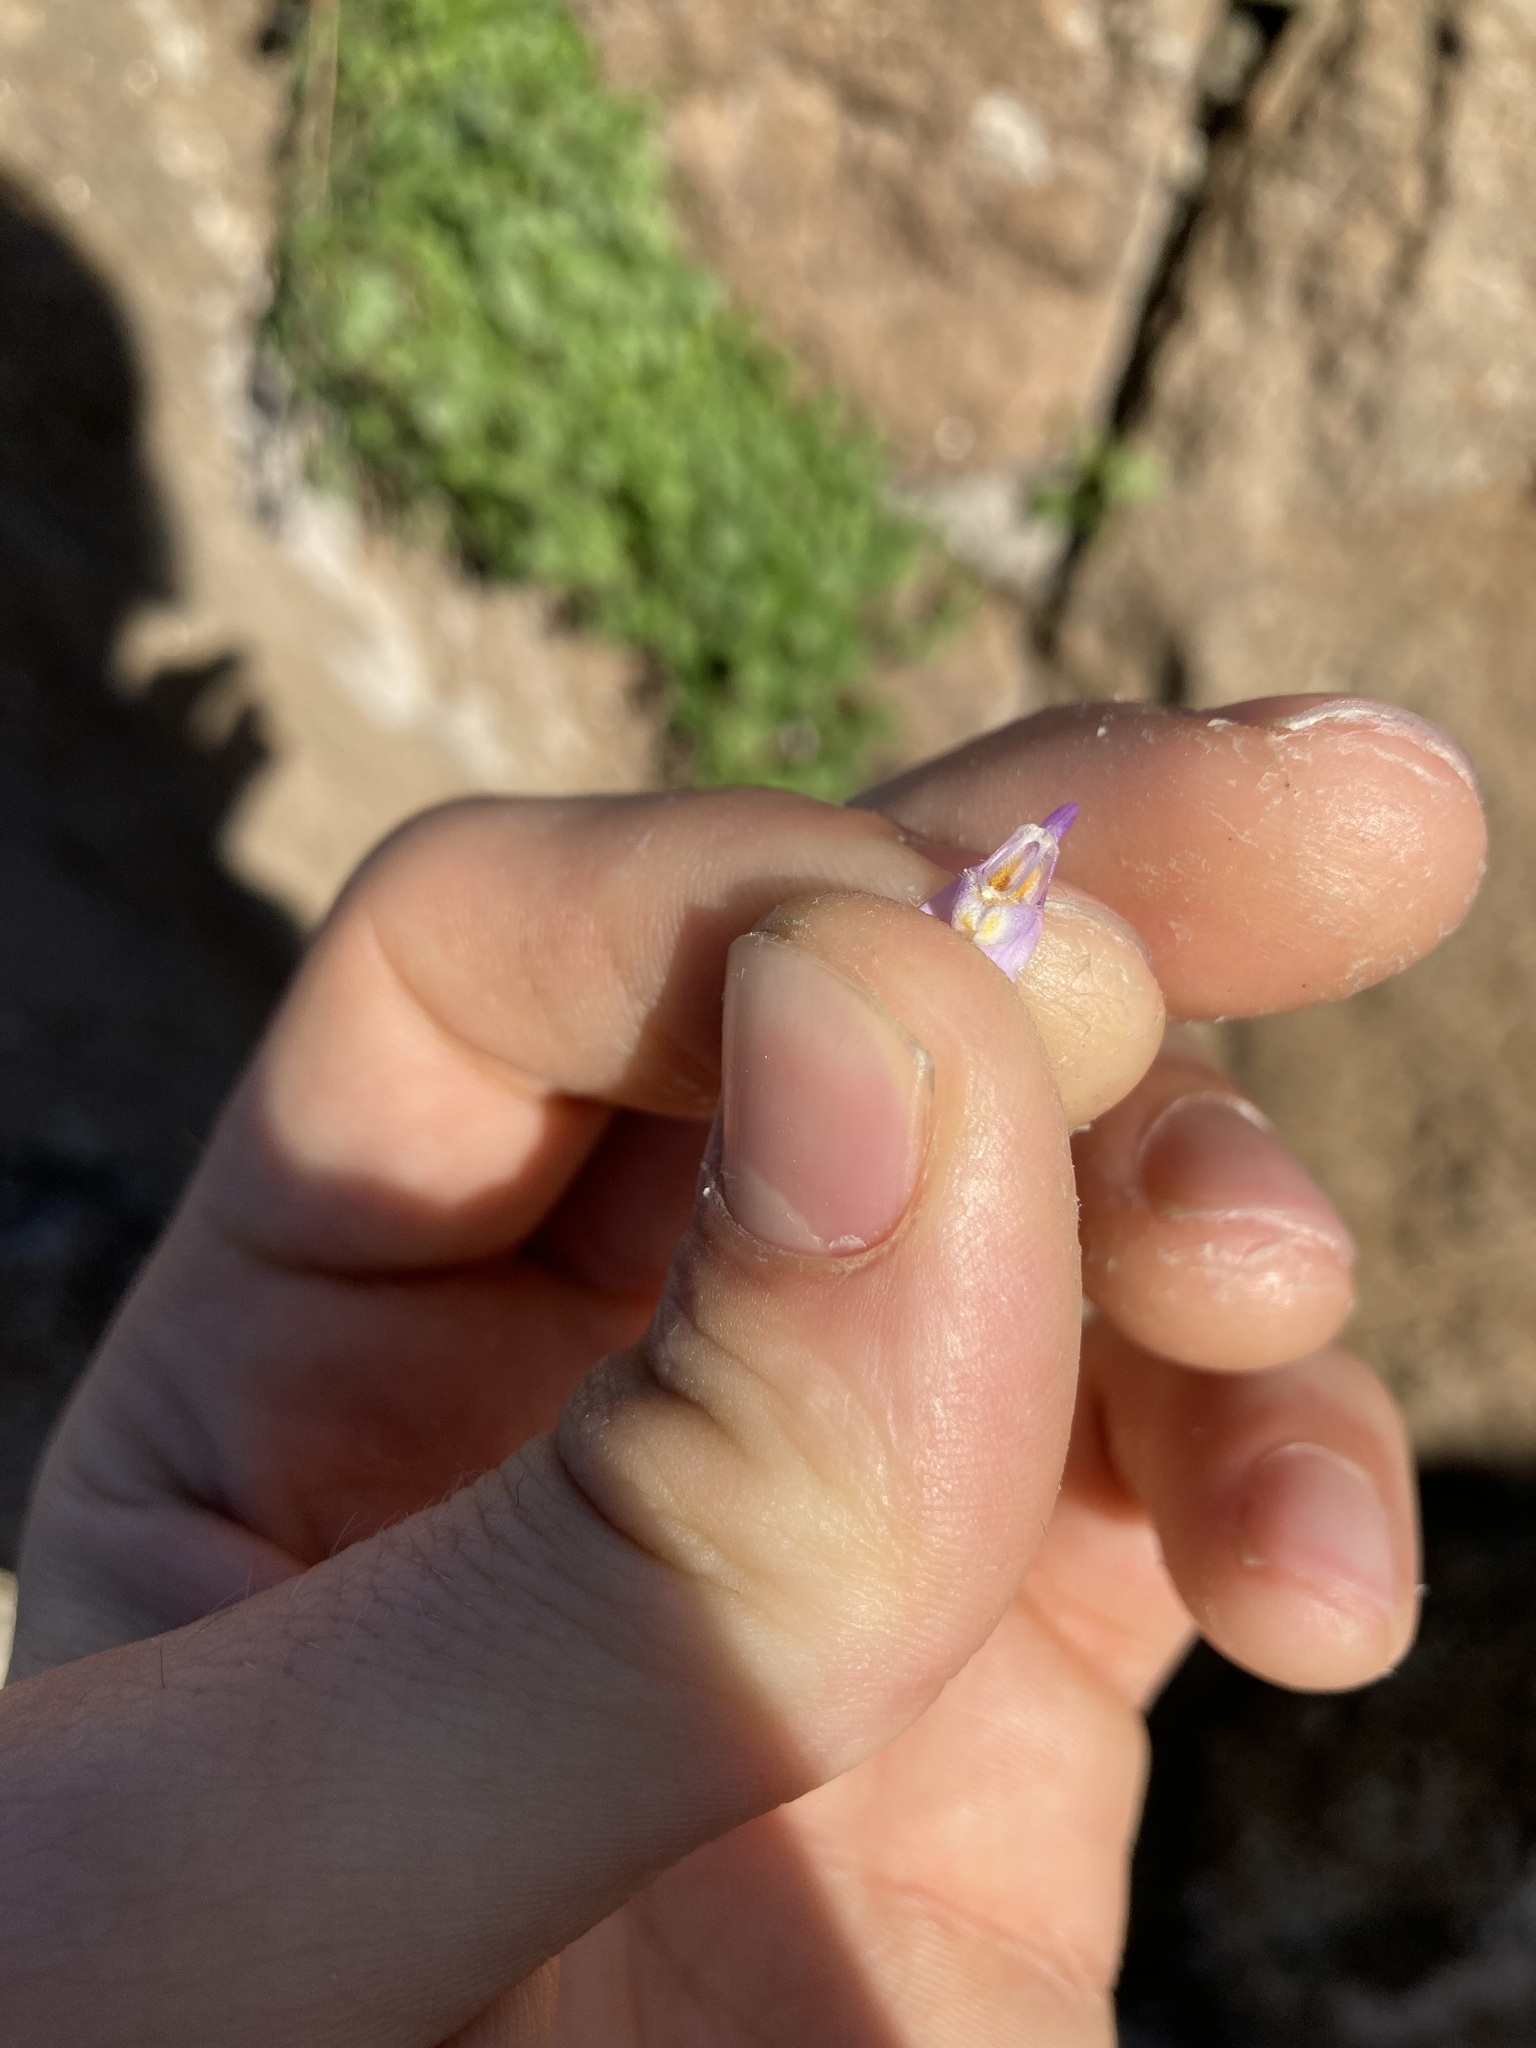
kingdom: Plantae
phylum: Tracheophyta
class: Magnoliopsida
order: Lamiales
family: Plantaginaceae
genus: Cymbalaria
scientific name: Cymbalaria muralis
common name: Ivy-leaved toadflax
